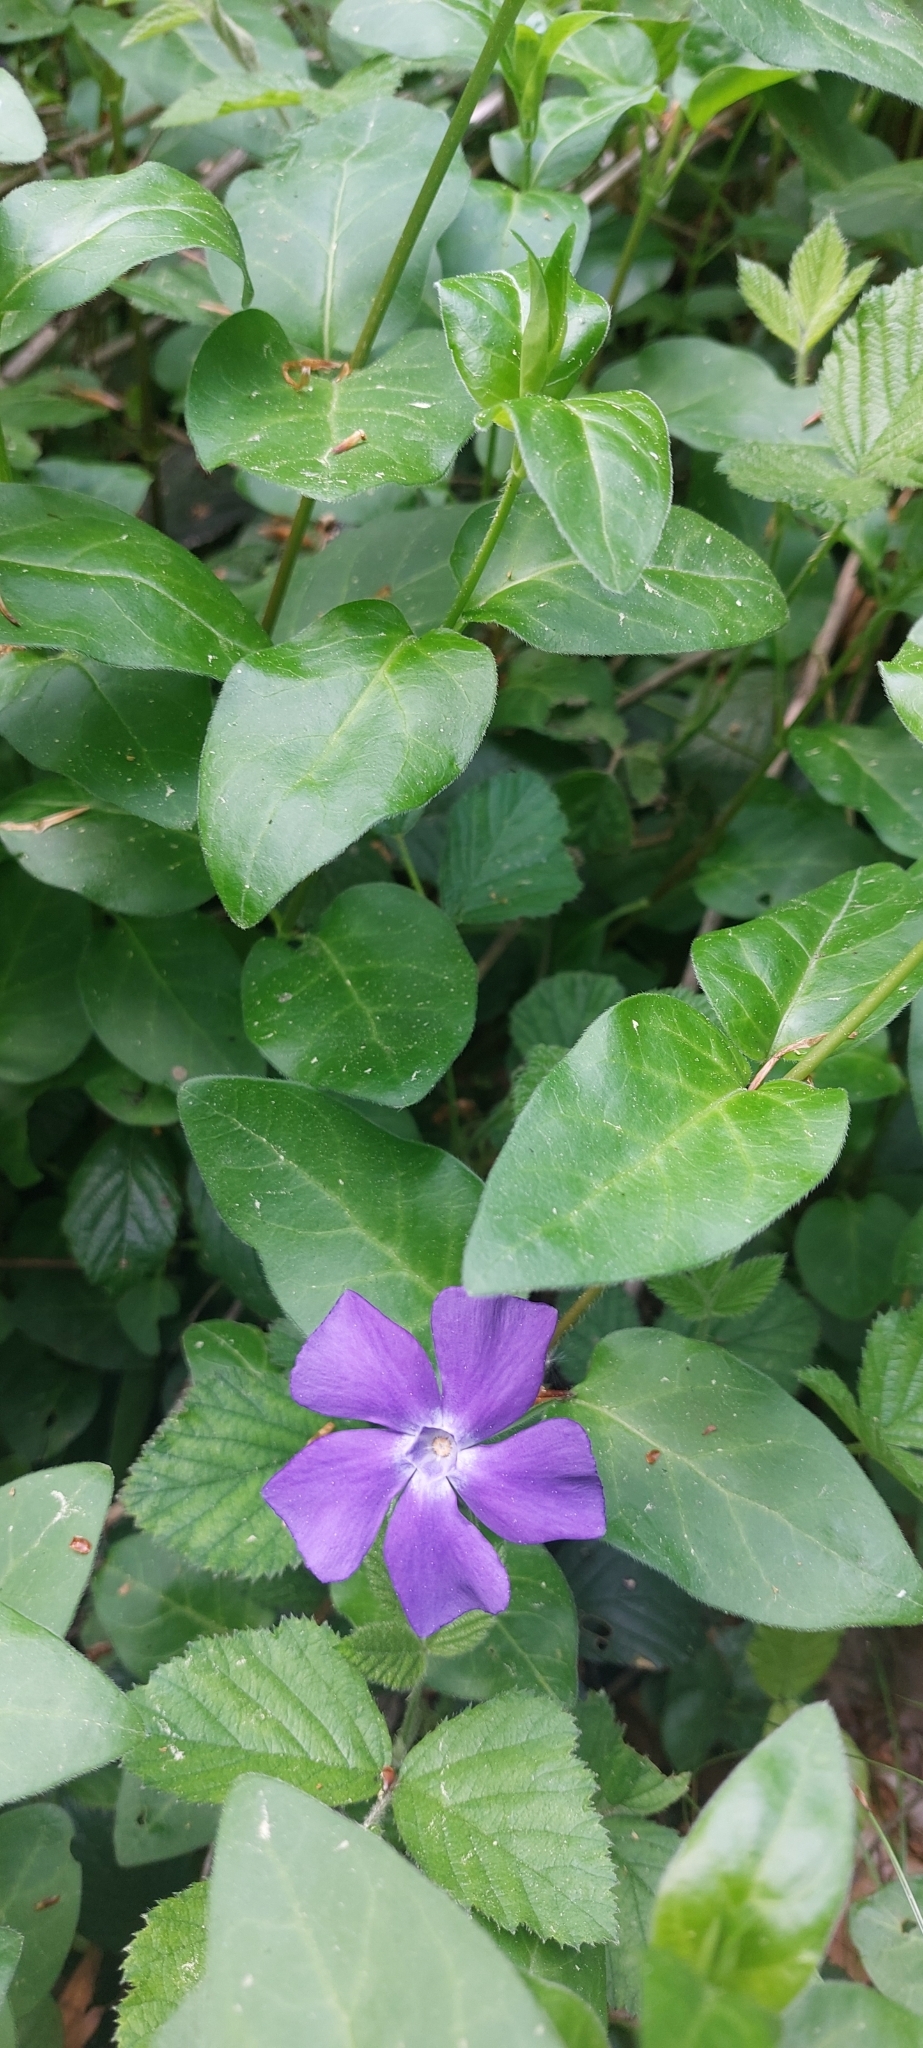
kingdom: Plantae
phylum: Tracheophyta
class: Magnoliopsida
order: Gentianales
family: Apocynaceae
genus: Vinca
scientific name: Vinca major
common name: Greater periwinkle
